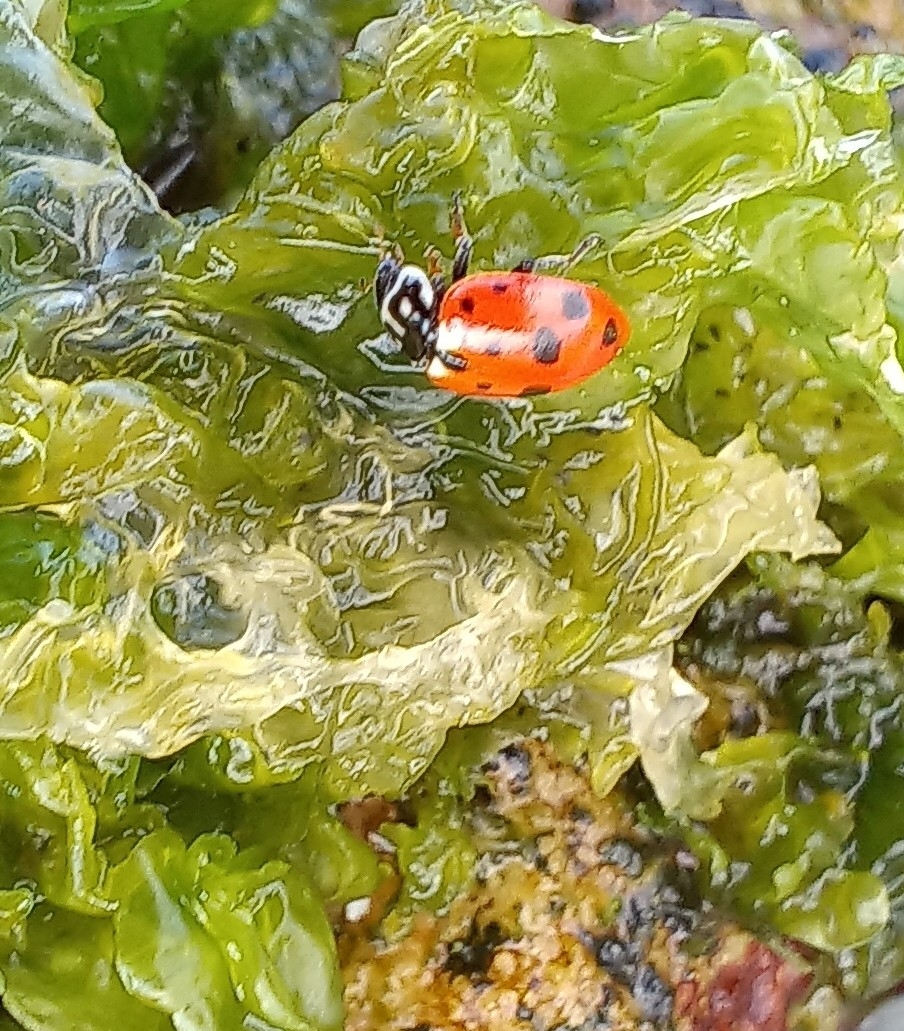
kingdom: Animalia
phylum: Arthropoda
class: Insecta
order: Coleoptera
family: Coccinellidae
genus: Hippodamia
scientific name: Hippodamia variegata
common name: Ladybird beetle
